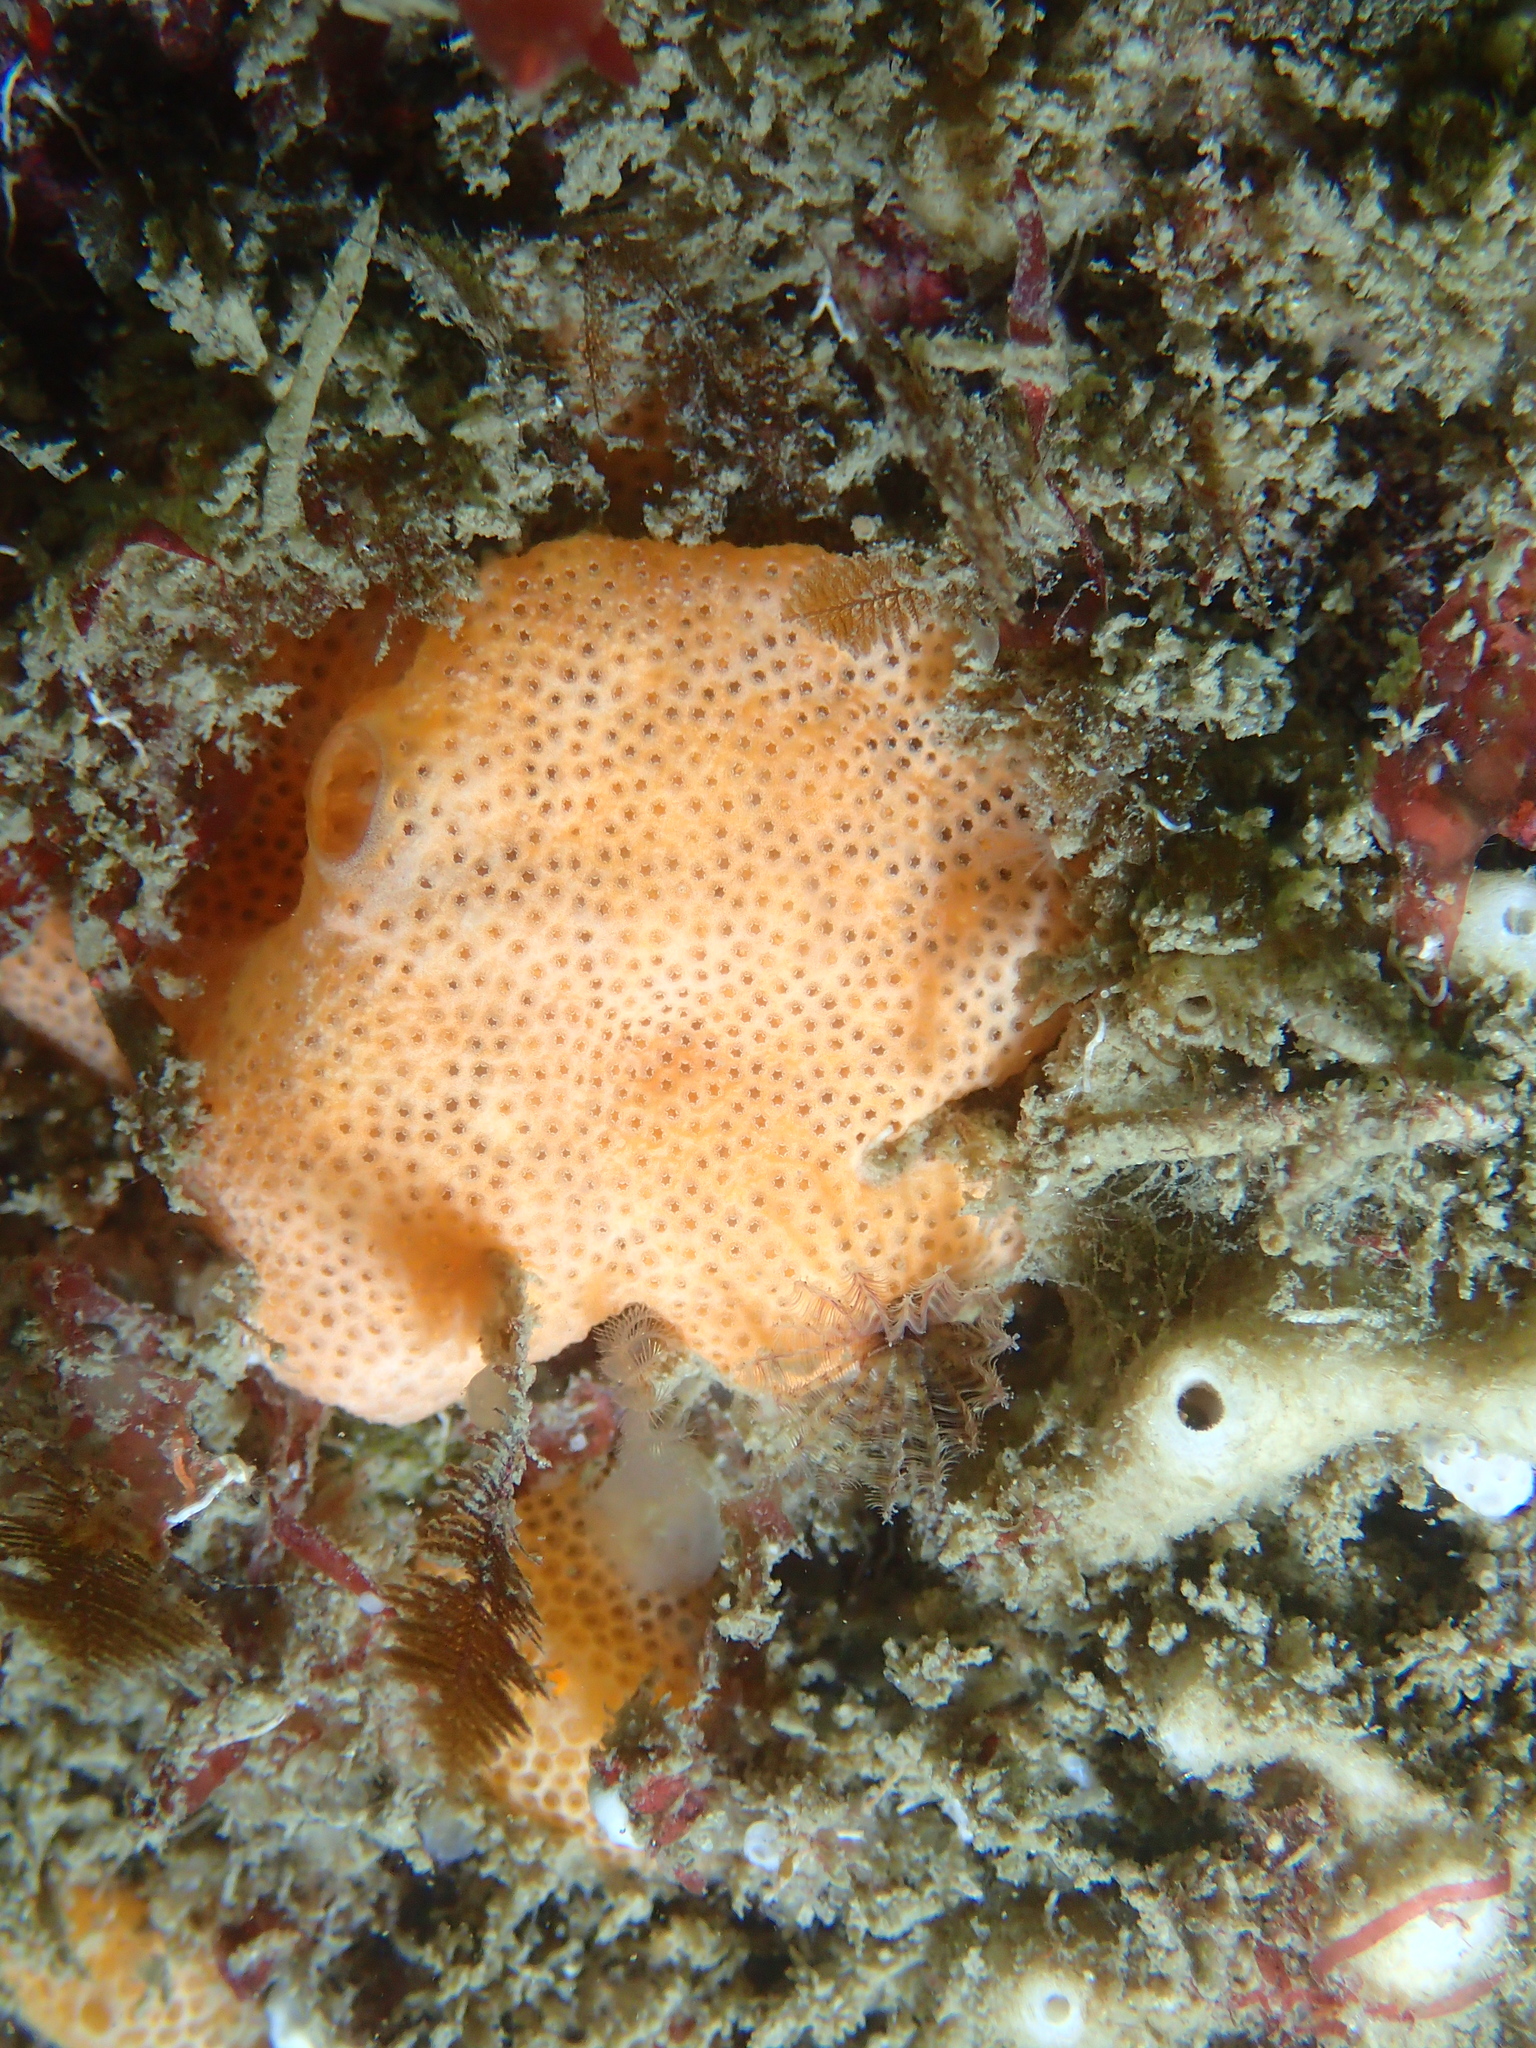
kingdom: Animalia
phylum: Chordata
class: Ascidiacea
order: Aplousobranchia
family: Didemnidae
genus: Lissoclinum
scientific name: Lissoclinum perforatum
